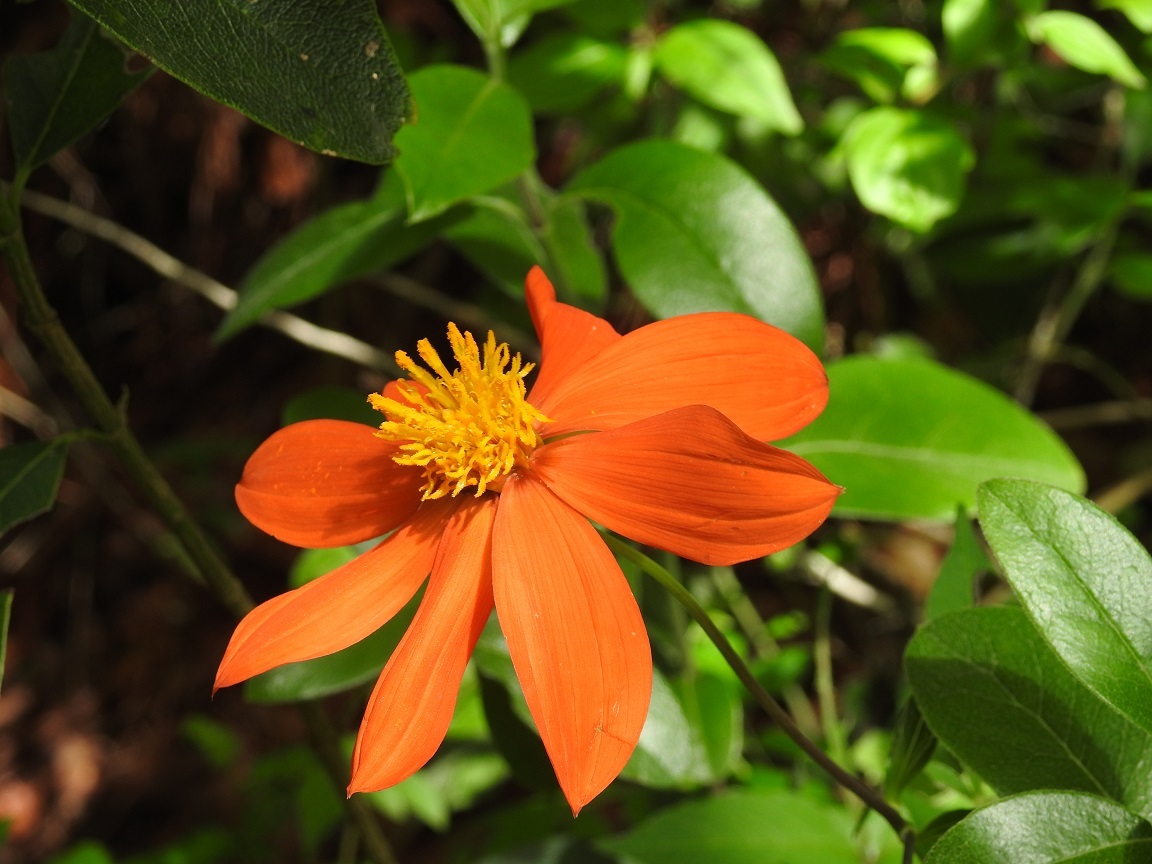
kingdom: Plantae
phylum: Tracheophyta
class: Magnoliopsida
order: Asterales
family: Asteraceae
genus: Dahlia
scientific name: Dahlia coccinea
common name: Red dahlia
